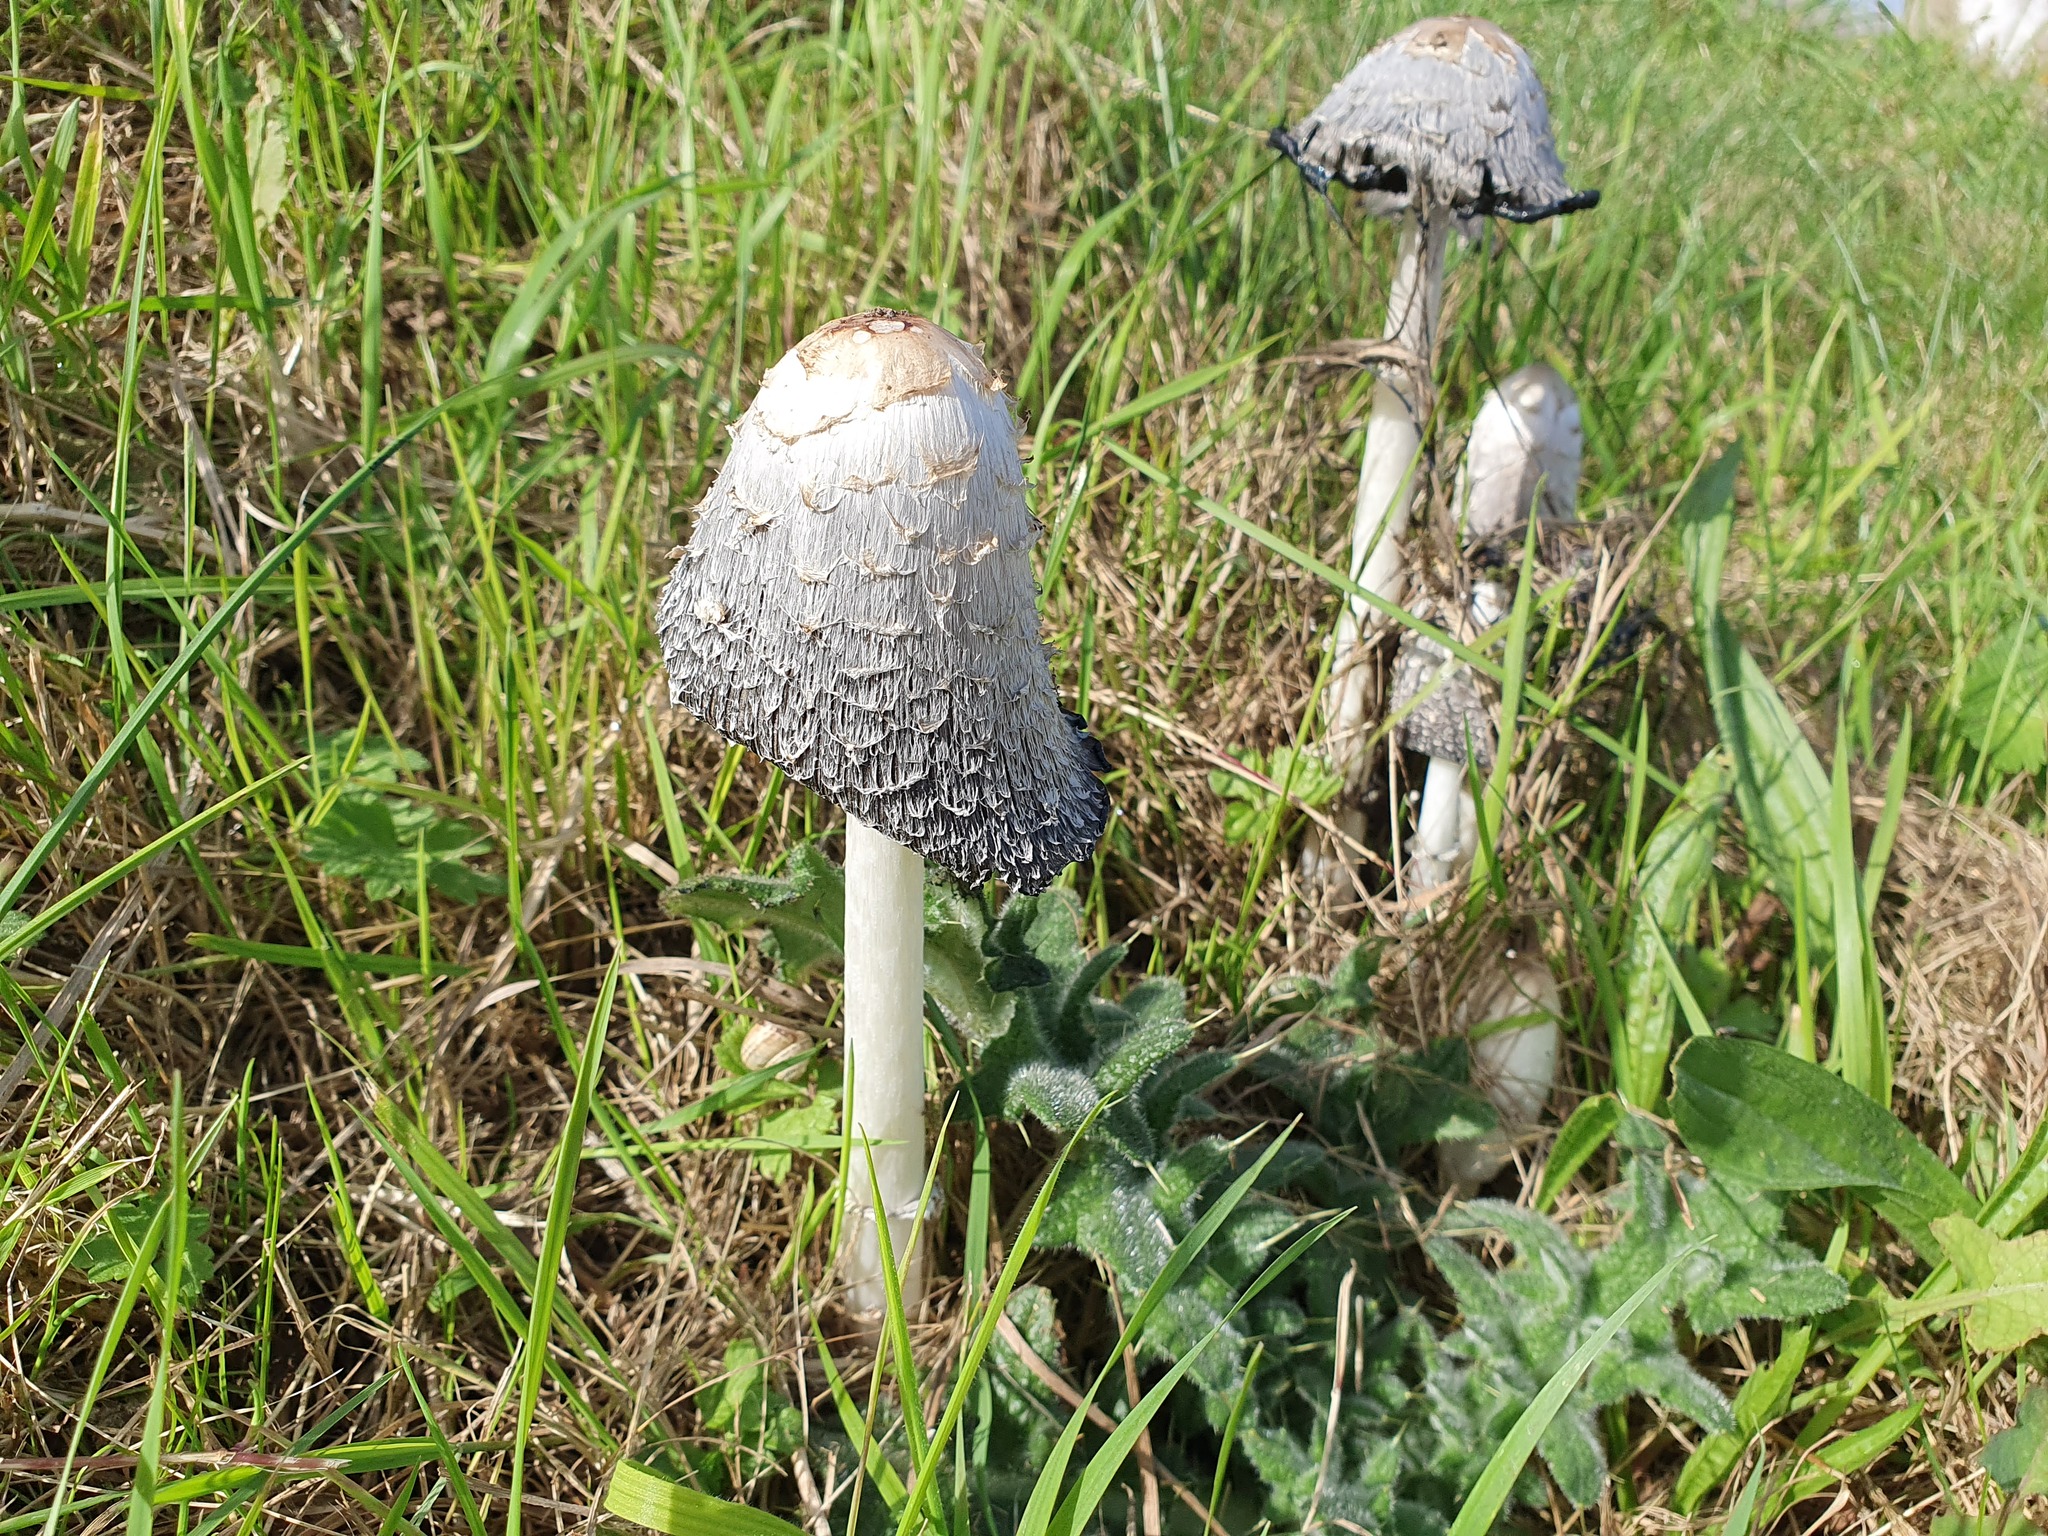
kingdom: Fungi
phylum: Basidiomycota
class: Agaricomycetes
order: Agaricales
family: Agaricaceae
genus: Coprinus
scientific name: Coprinus comatus
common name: Lawyer's wig
